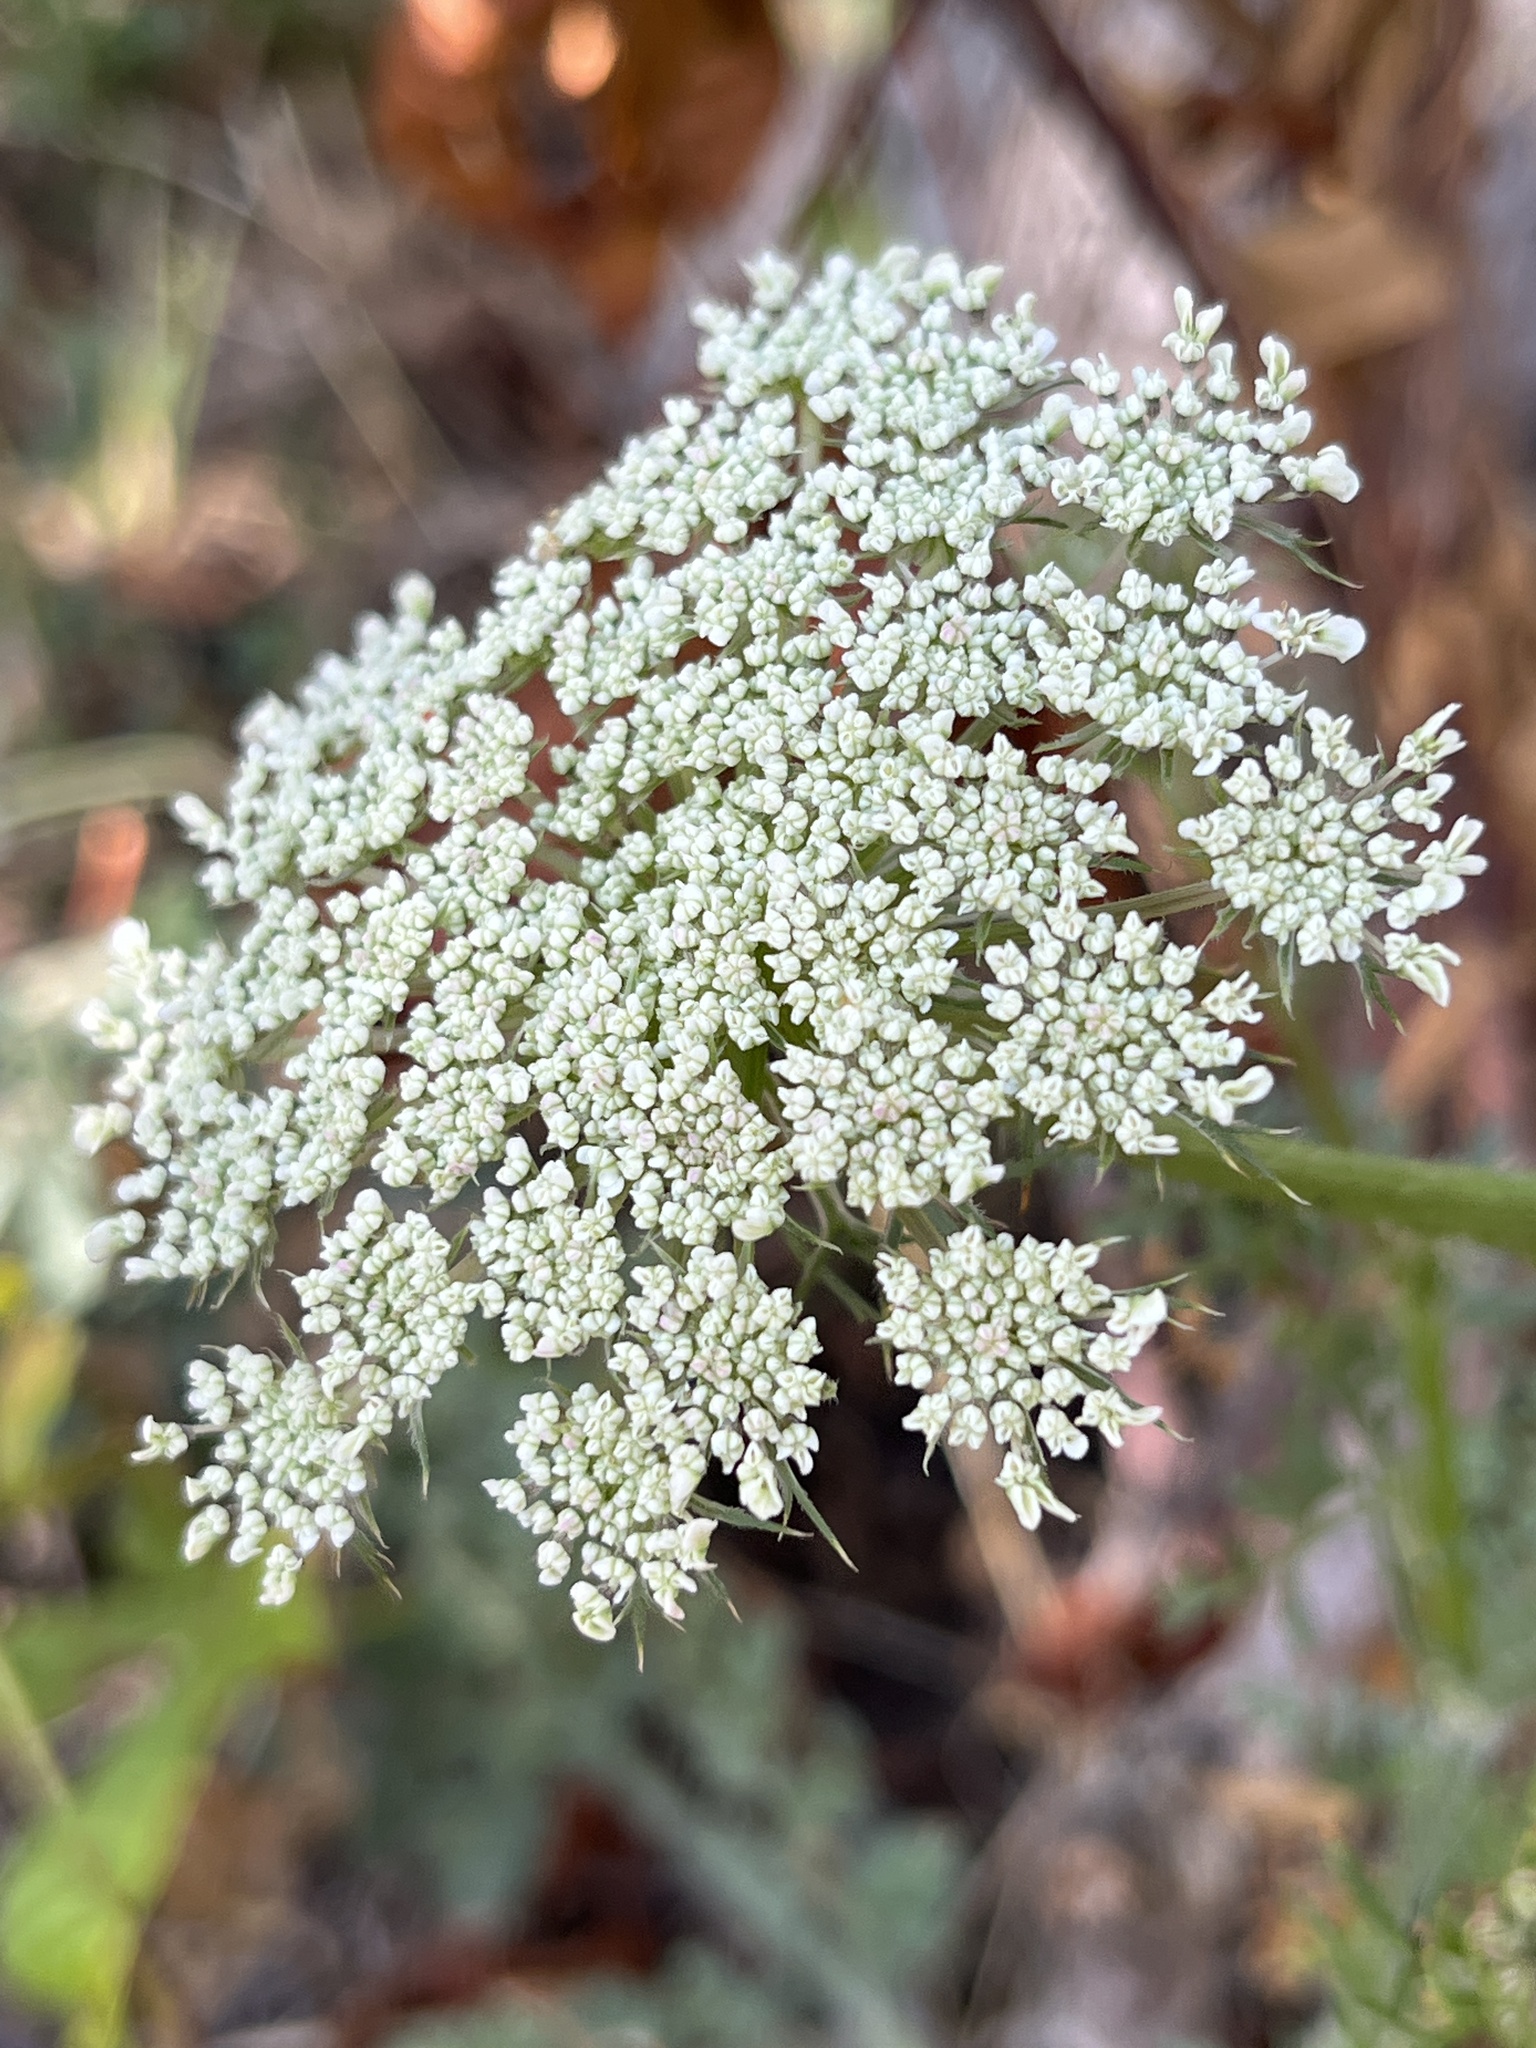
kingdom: Plantae
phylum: Tracheophyta
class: Magnoliopsida
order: Apiales
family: Apiaceae
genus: Daucus
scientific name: Daucus carota
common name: Wild carrot
